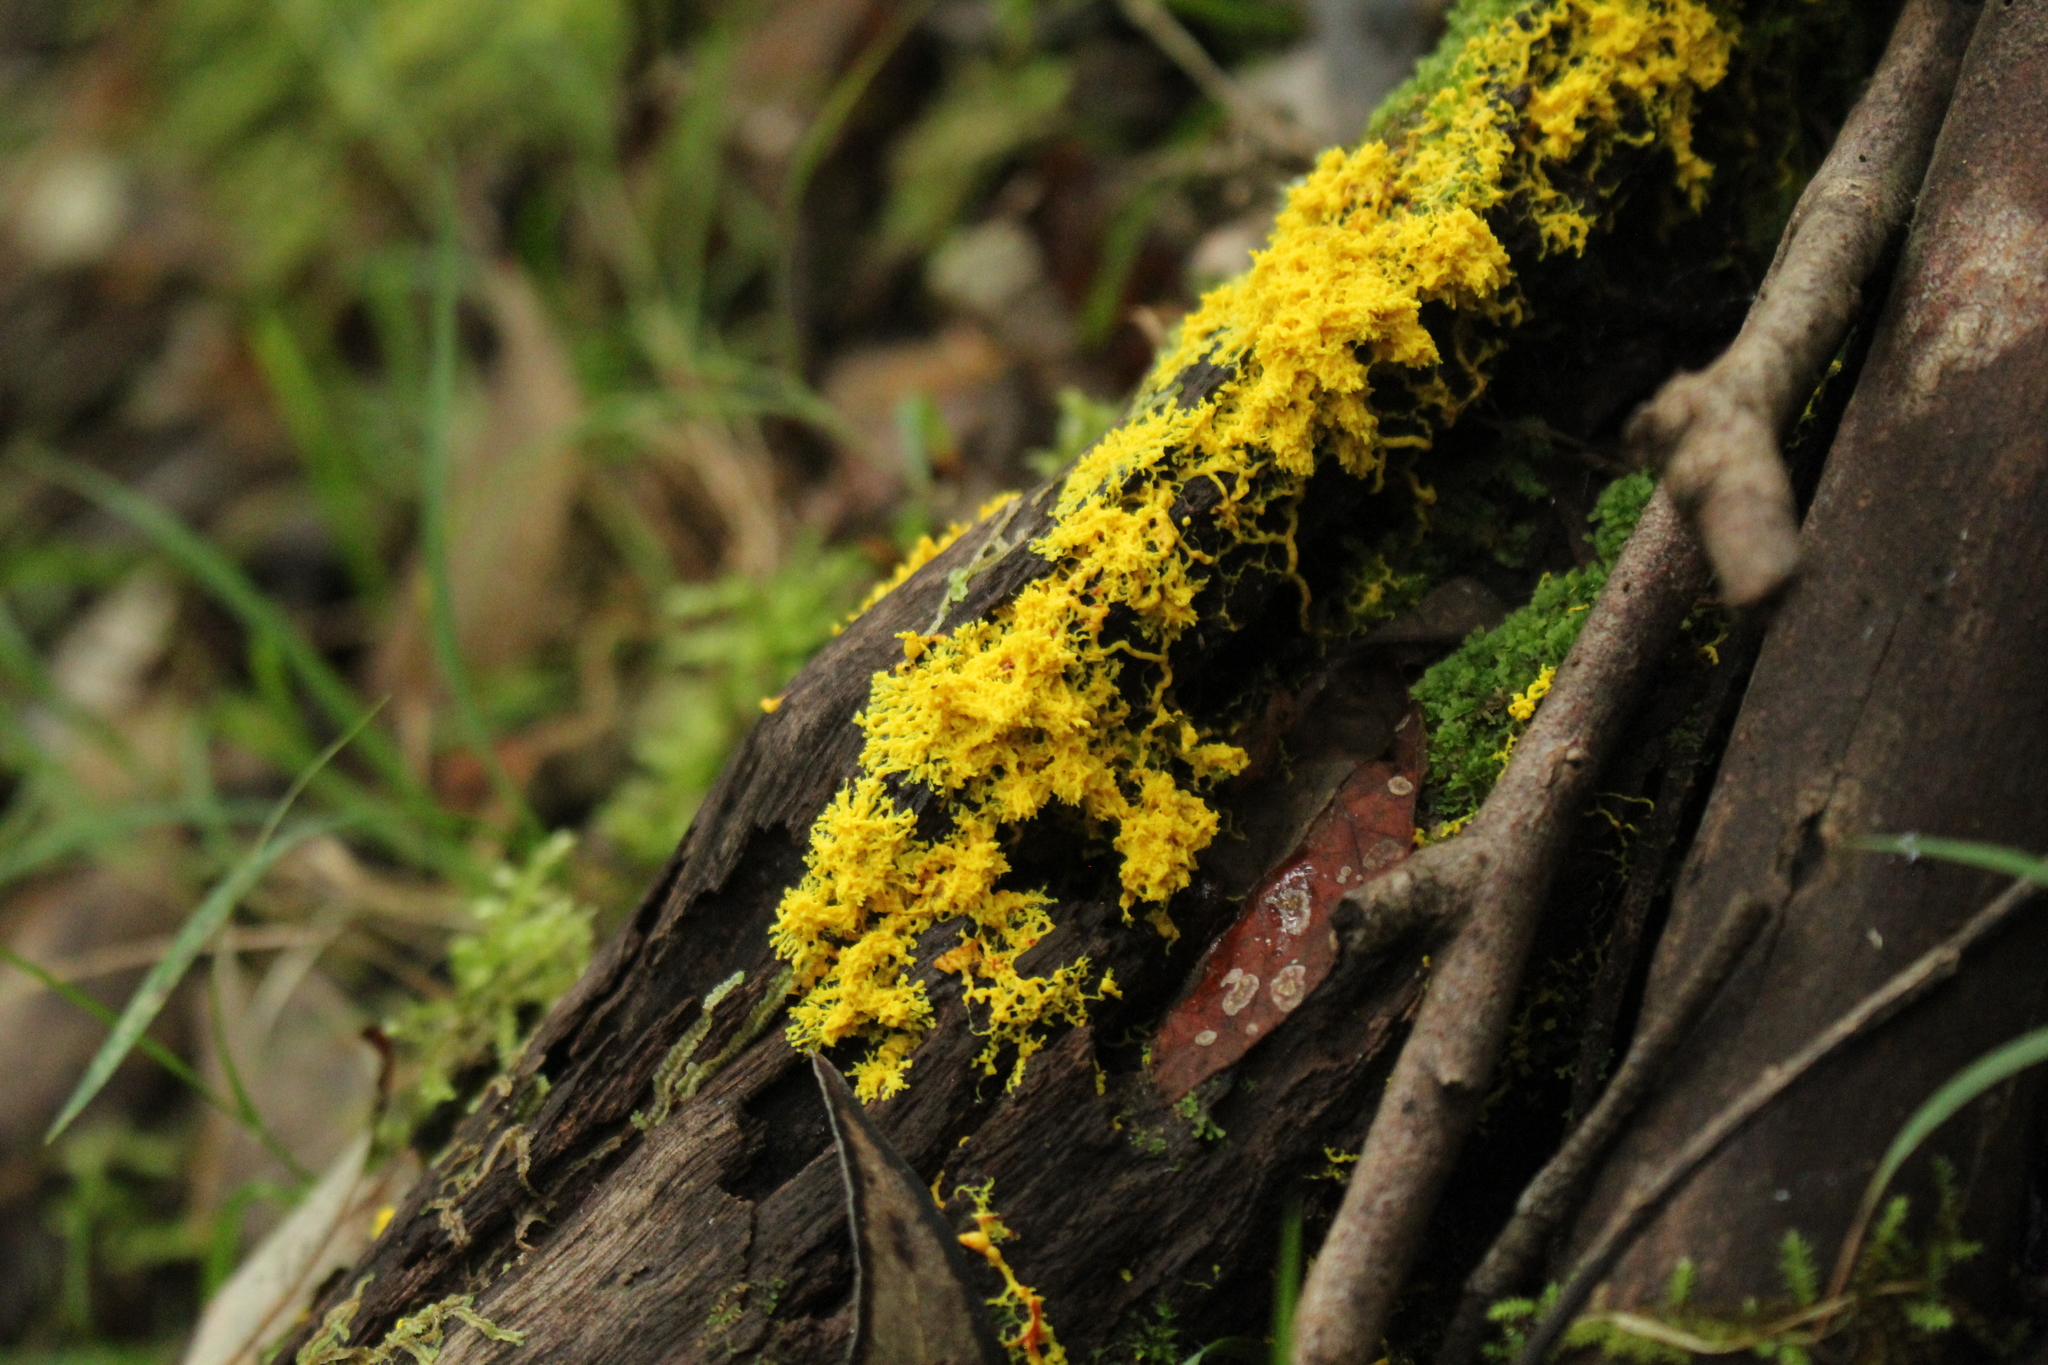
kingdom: Protozoa
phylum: Mycetozoa
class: Myxomycetes
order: Physarales
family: Physaraceae
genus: Fuligo
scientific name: Fuligo septica
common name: Dog vomit slime mold
